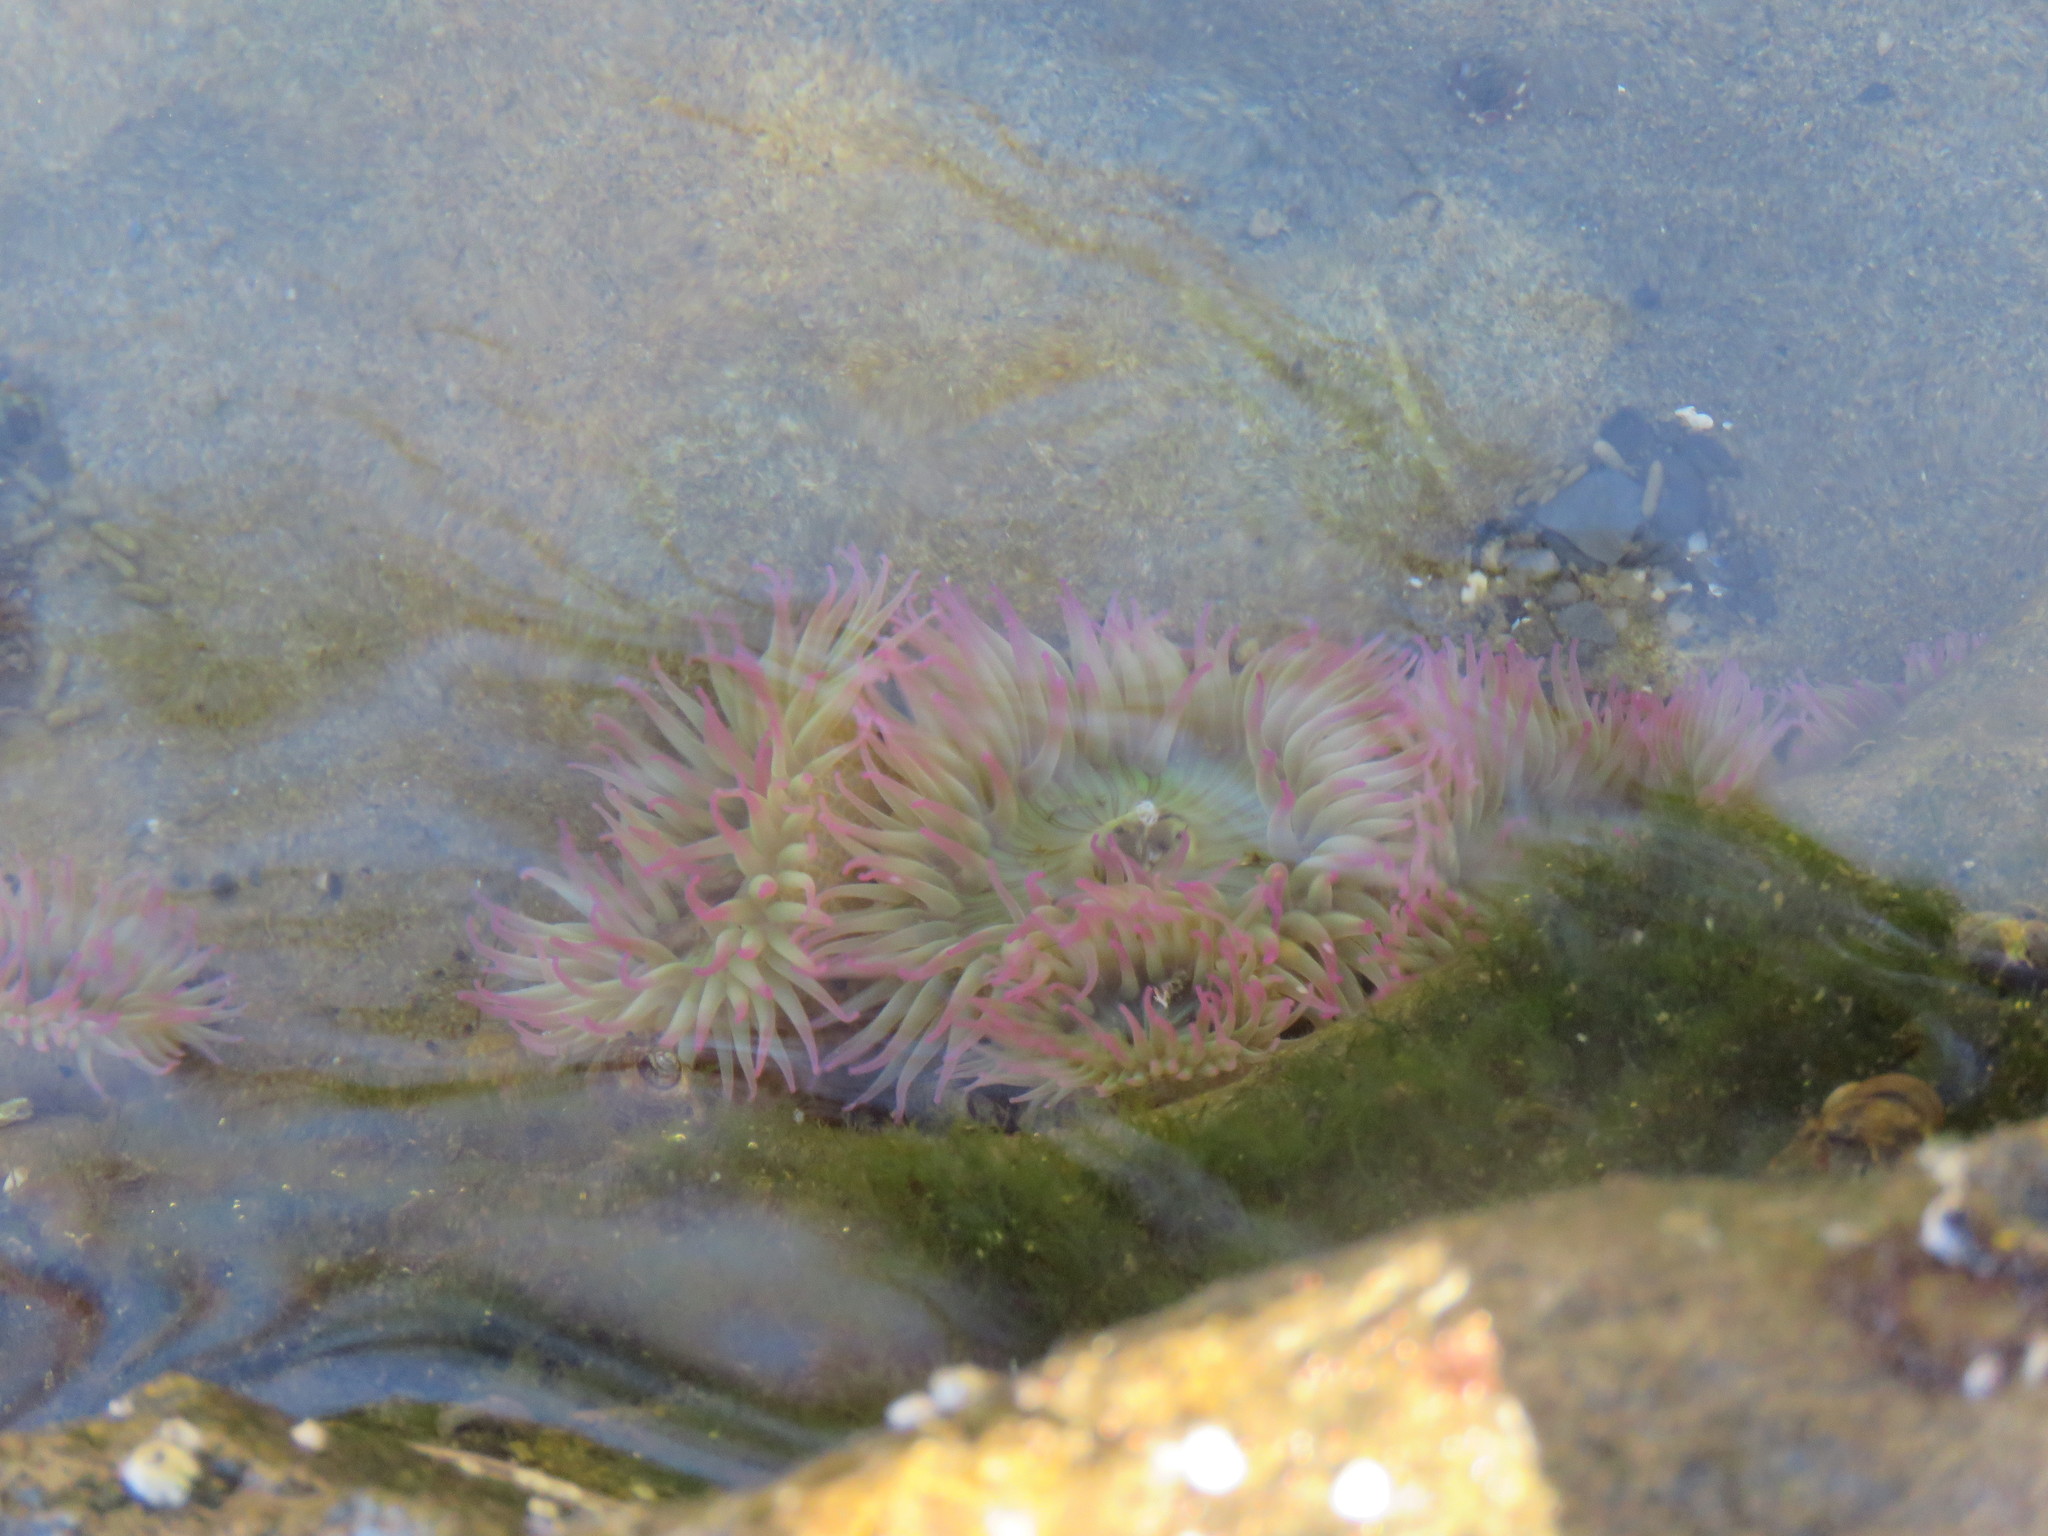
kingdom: Animalia
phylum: Cnidaria
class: Anthozoa
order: Actiniaria
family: Actiniidae
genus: Anthopleura
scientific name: Anthopleura elegantissima
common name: Clonal anemone
